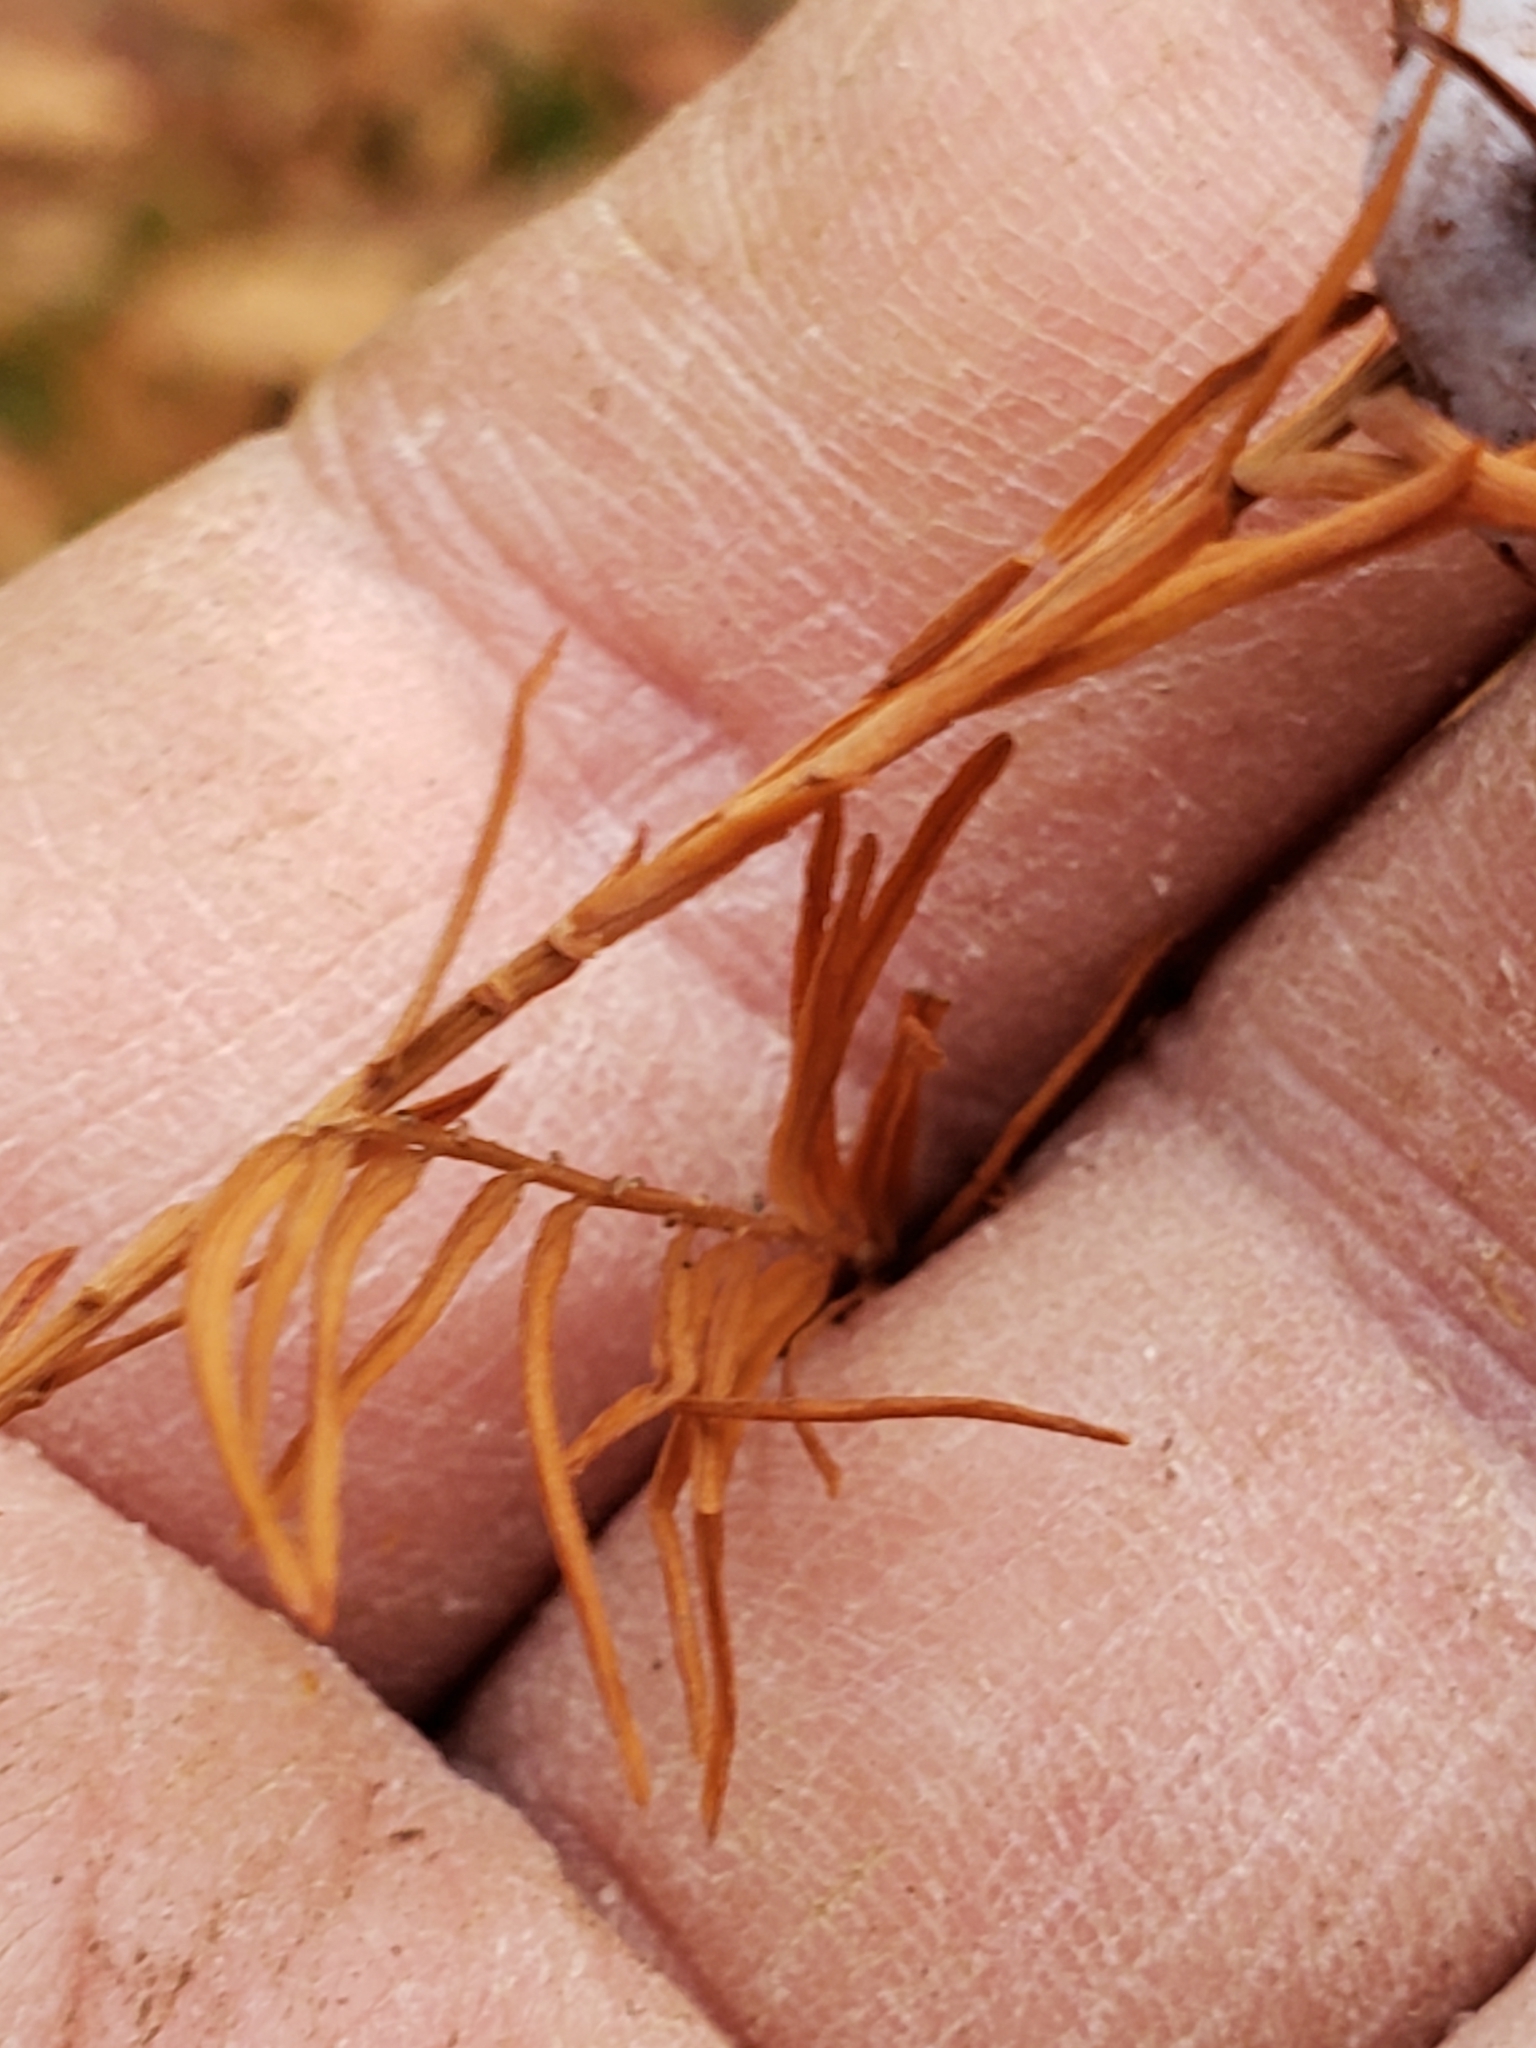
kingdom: Animalia
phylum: Arthropoda
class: Insecta
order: Diptera
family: Cecidomyiidae
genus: Taxodiomyia
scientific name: Taxodiomyia cupressiananassa
